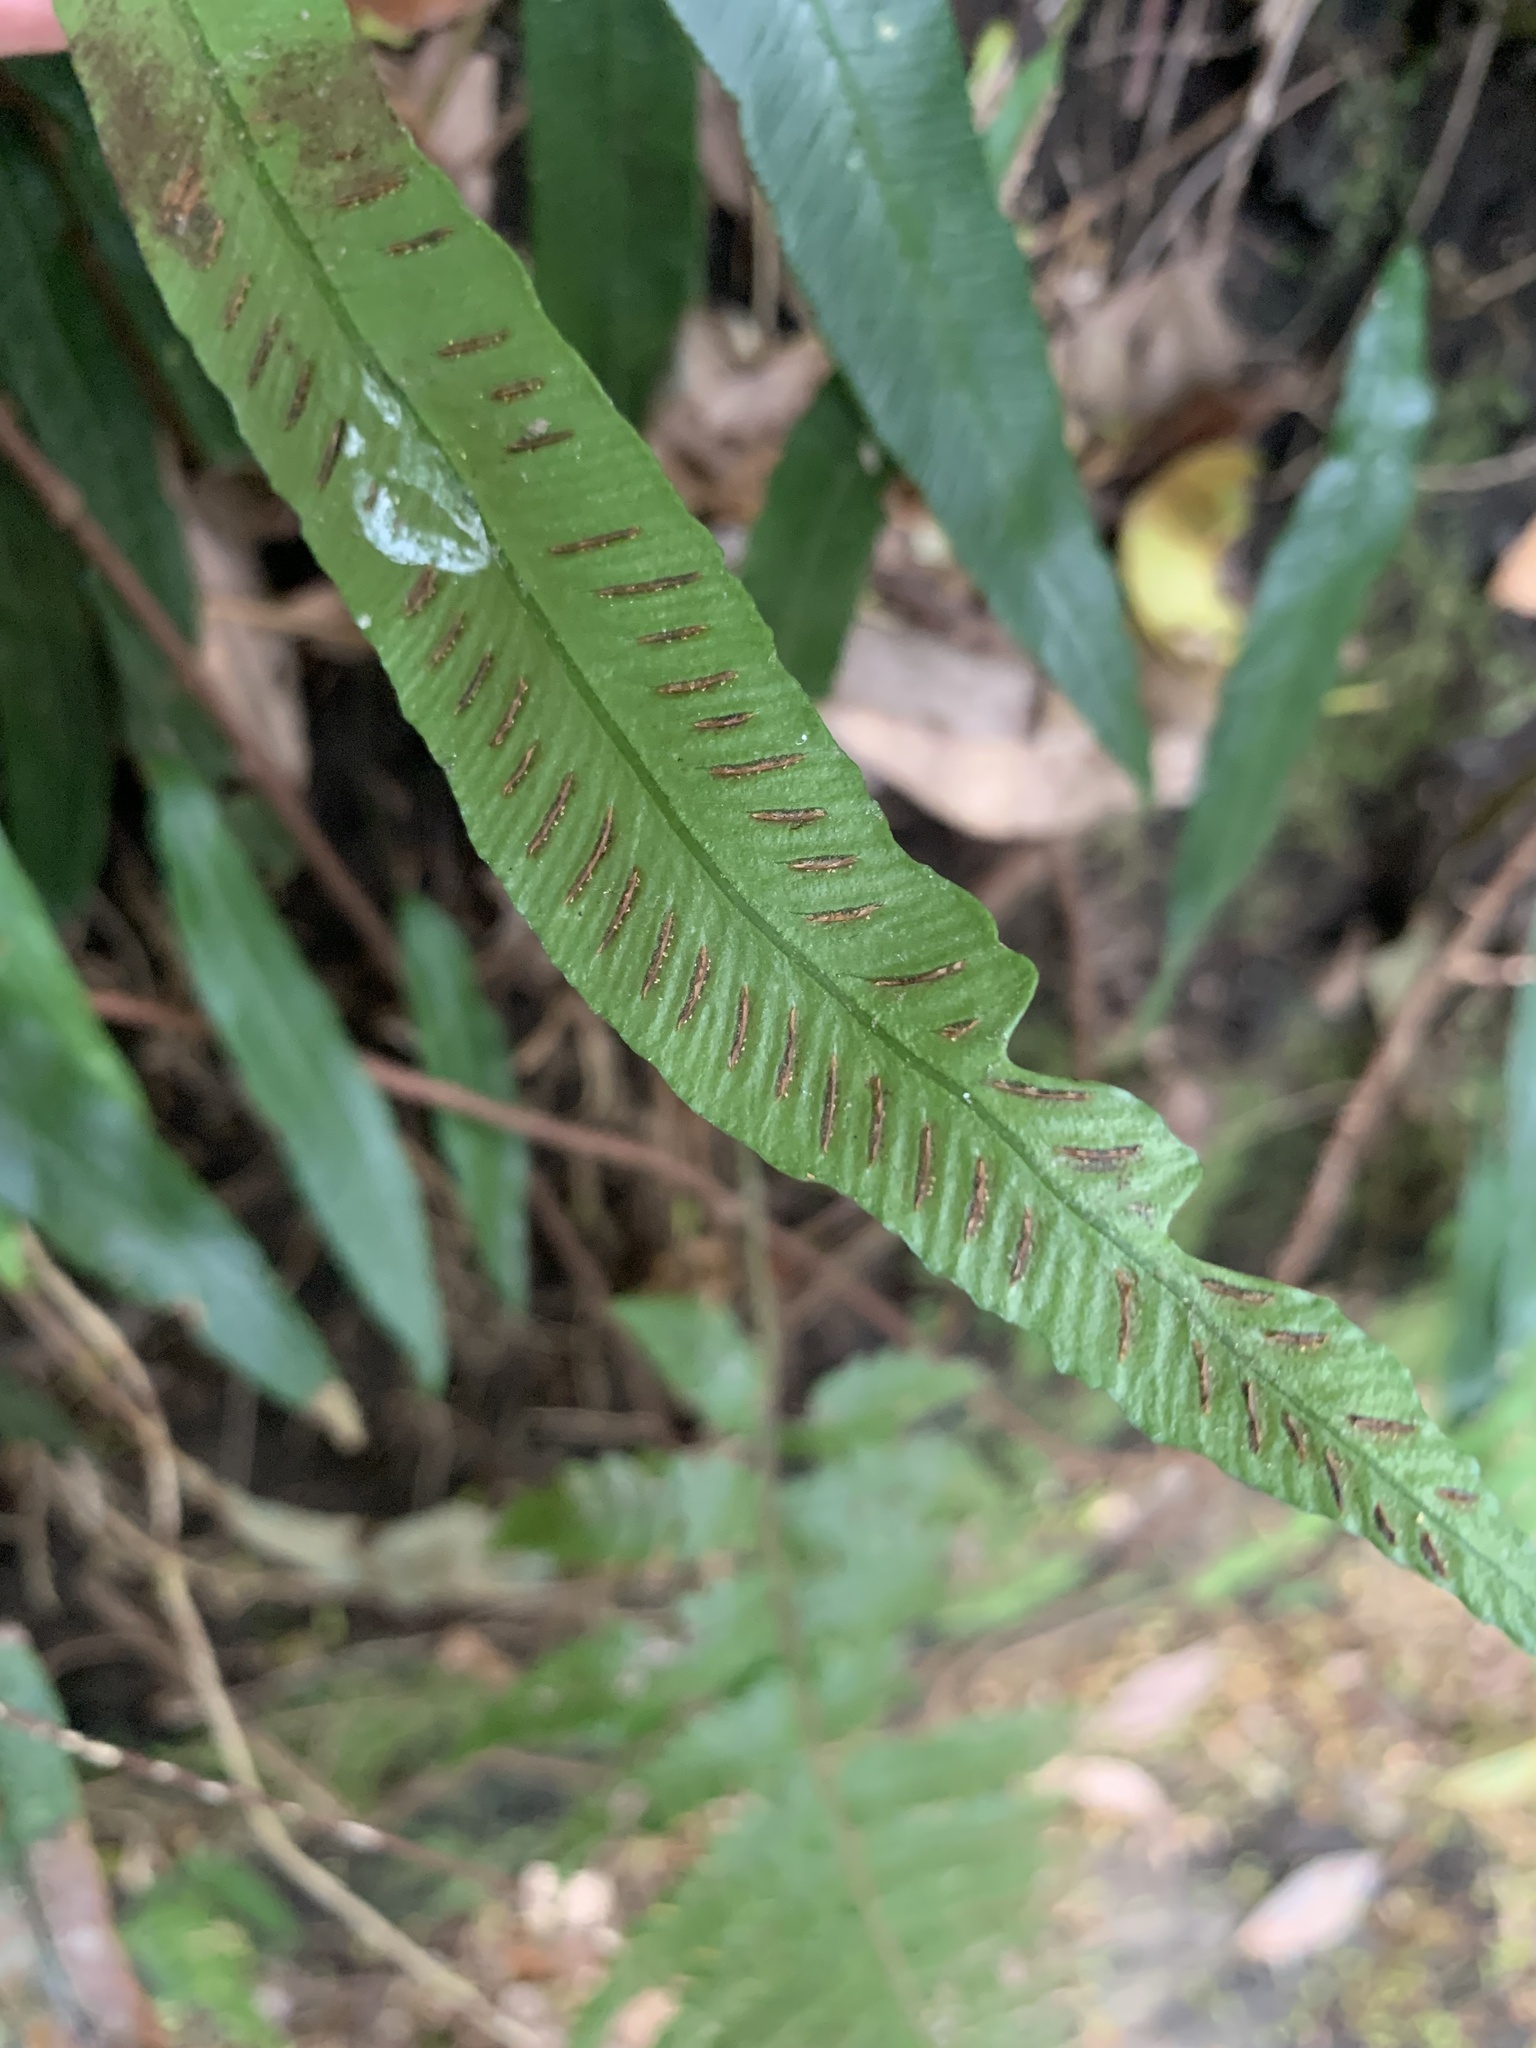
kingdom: Plantae
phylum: Tracheophyta
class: Polypodiopsida
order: Polypodiales
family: Athyriaceae
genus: Deparia
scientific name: Deparia lancea
